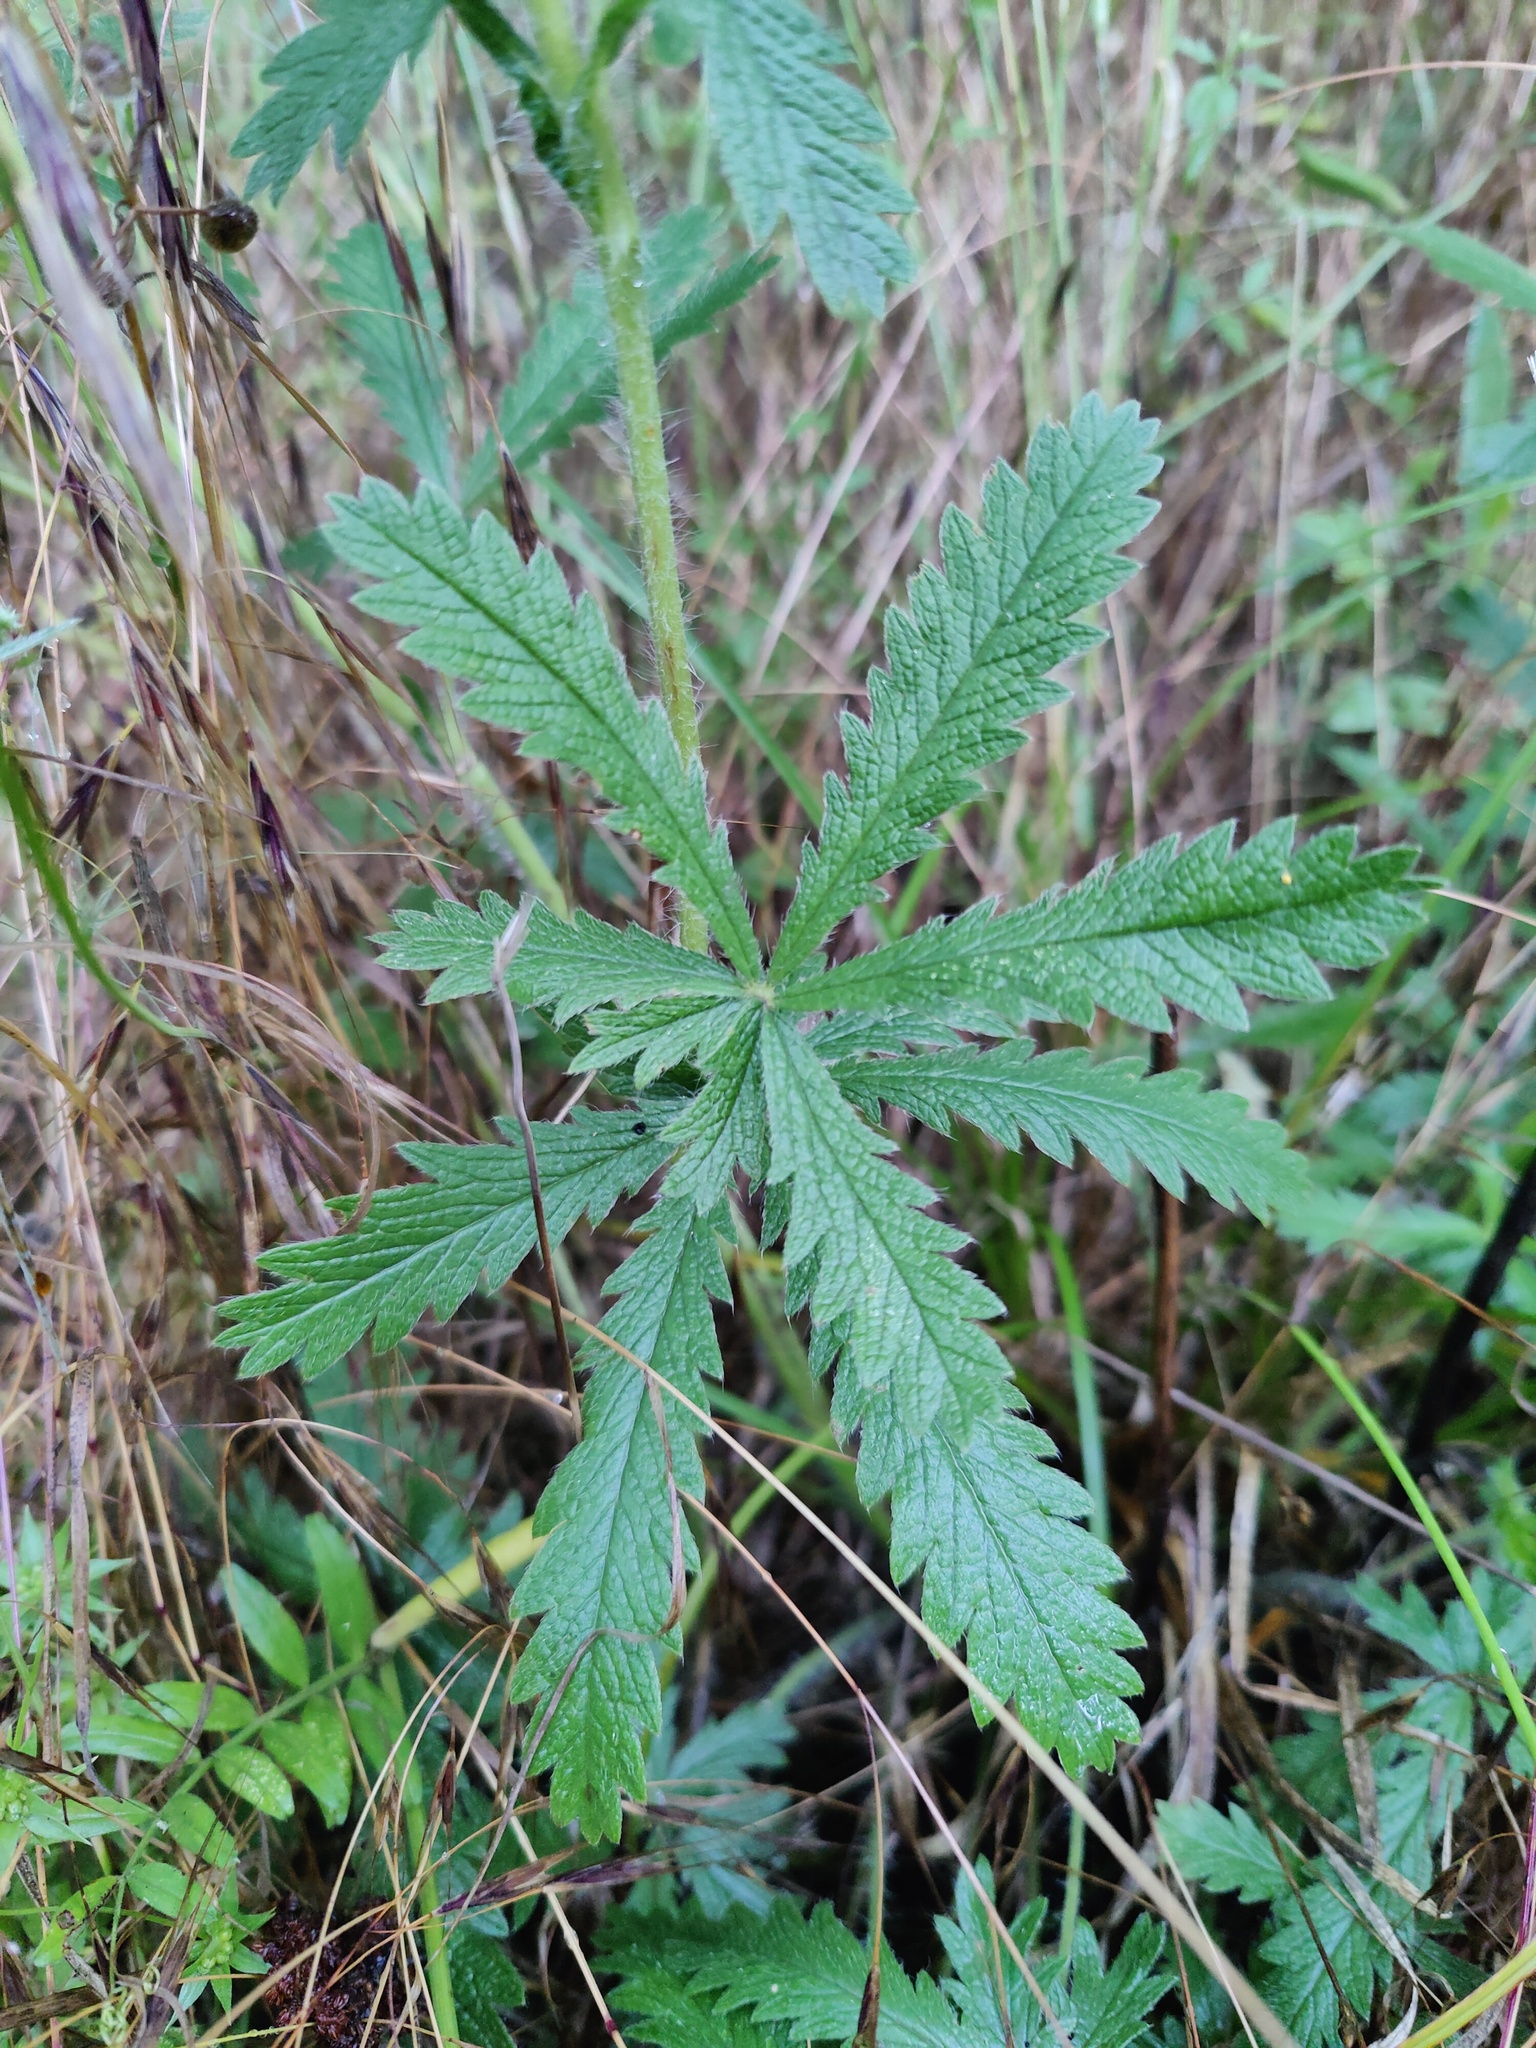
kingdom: Plantae
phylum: Tracheophyta
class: Magnoliopsida
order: Rosales
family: Rosaceae
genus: Potentilla
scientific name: Potentilla recta
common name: Sulphur cinquefoil
